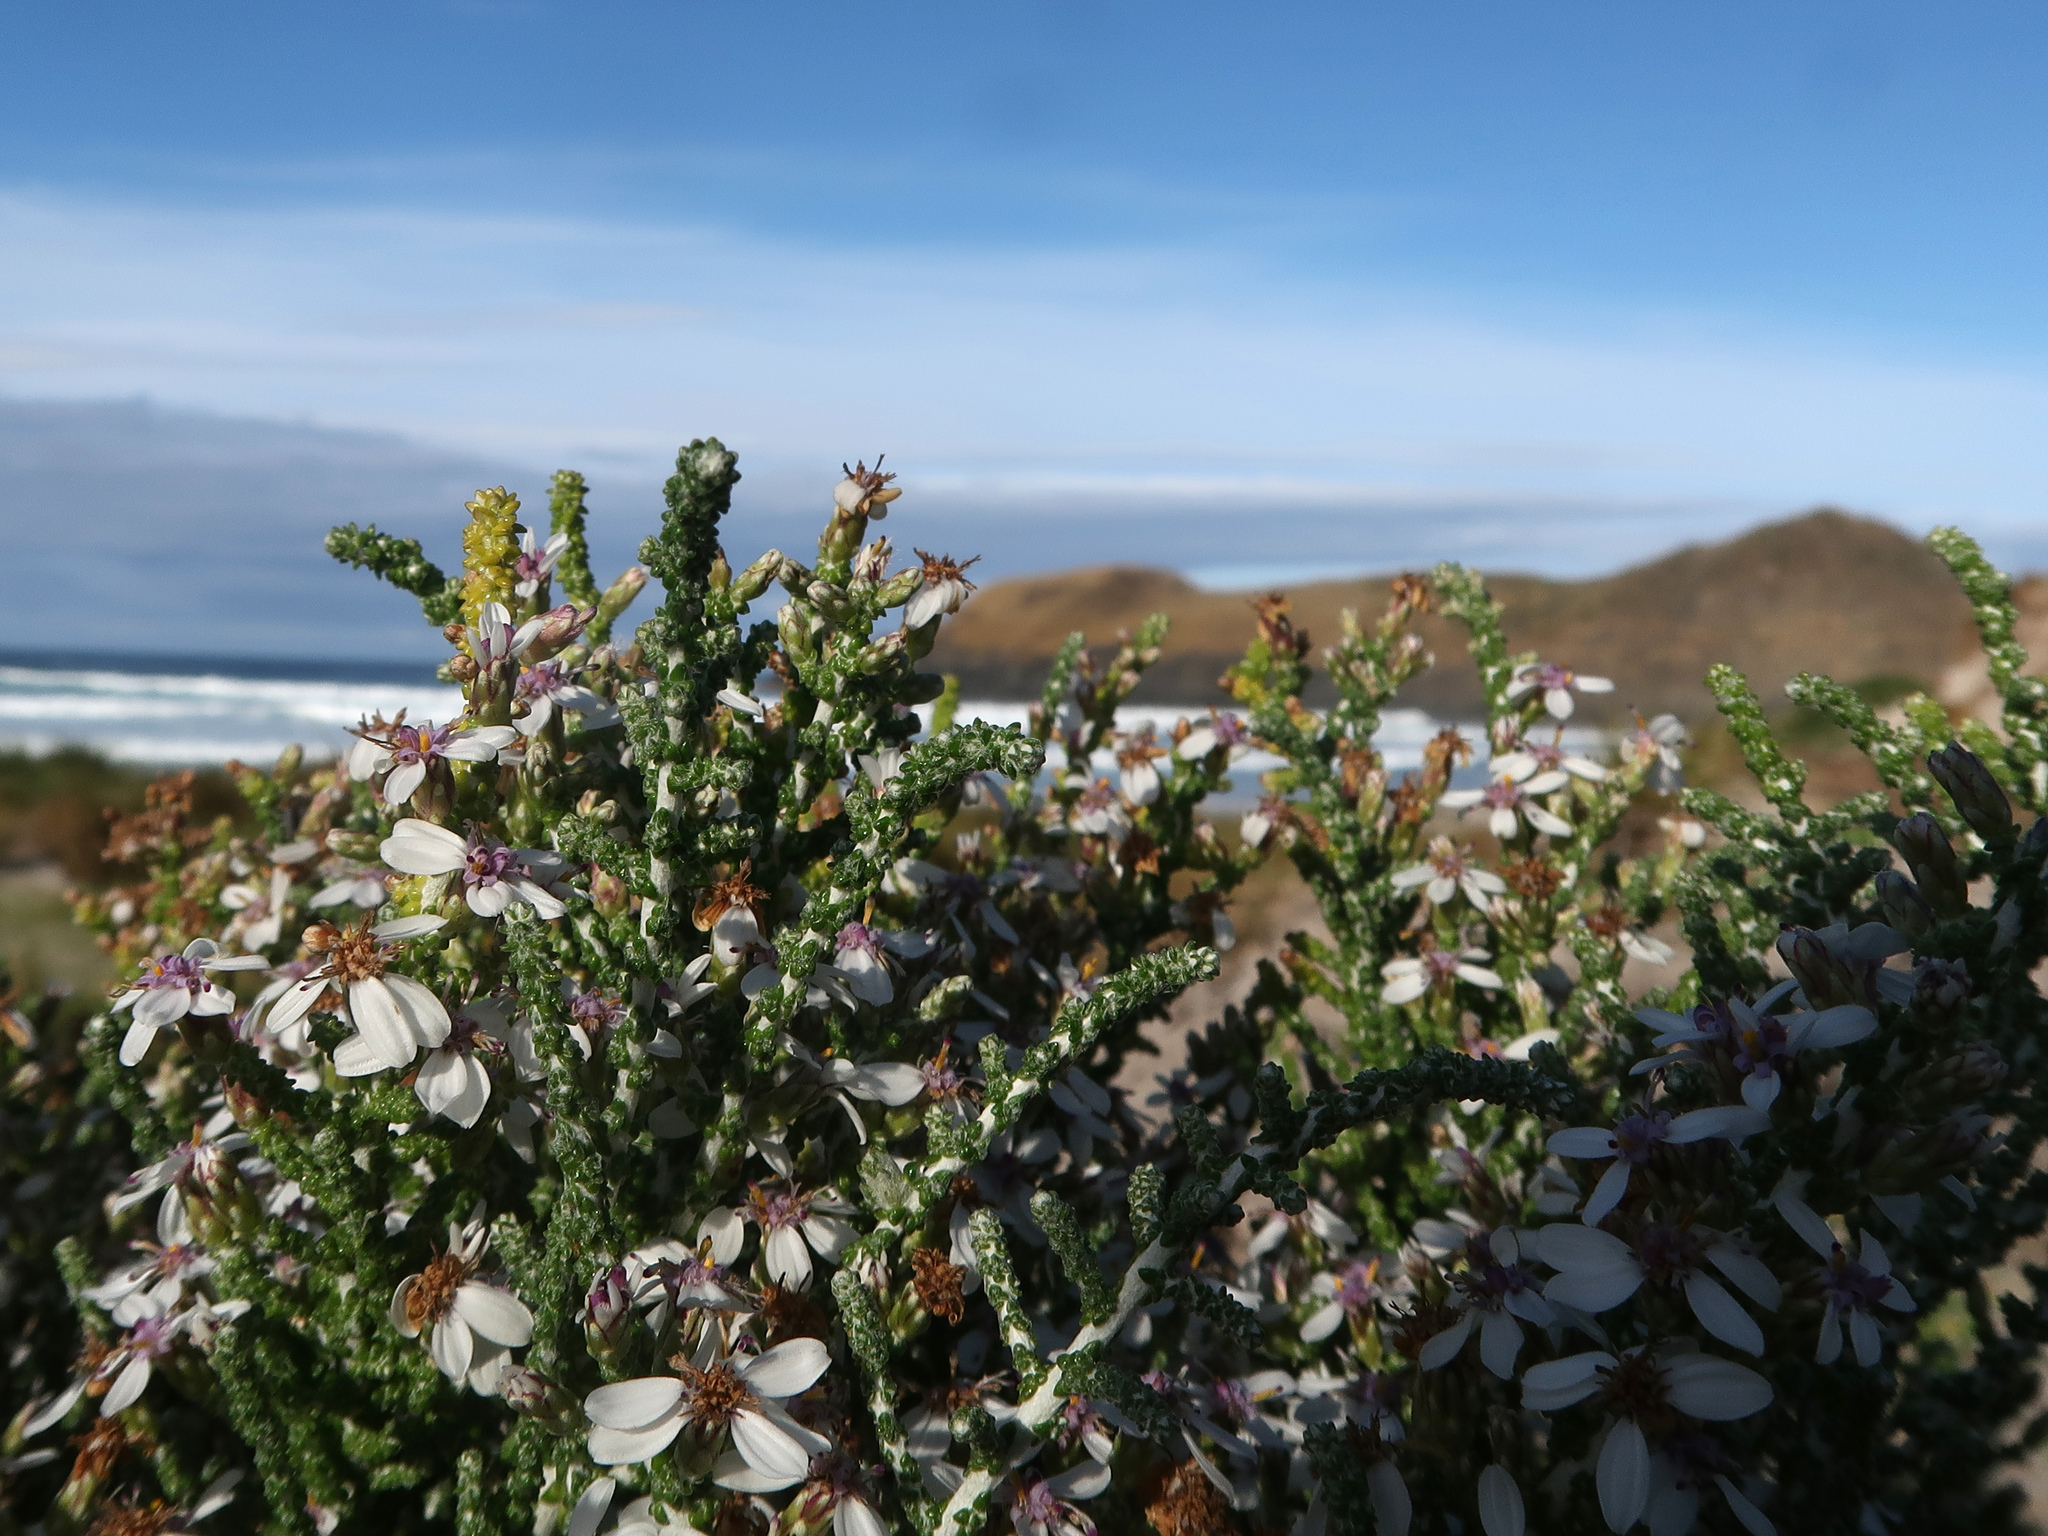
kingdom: Plantae
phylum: Tracheophyta
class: Magnoliopsida
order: Asterales
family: Asteraceae
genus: Olearia
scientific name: Olearia lepidophylla
